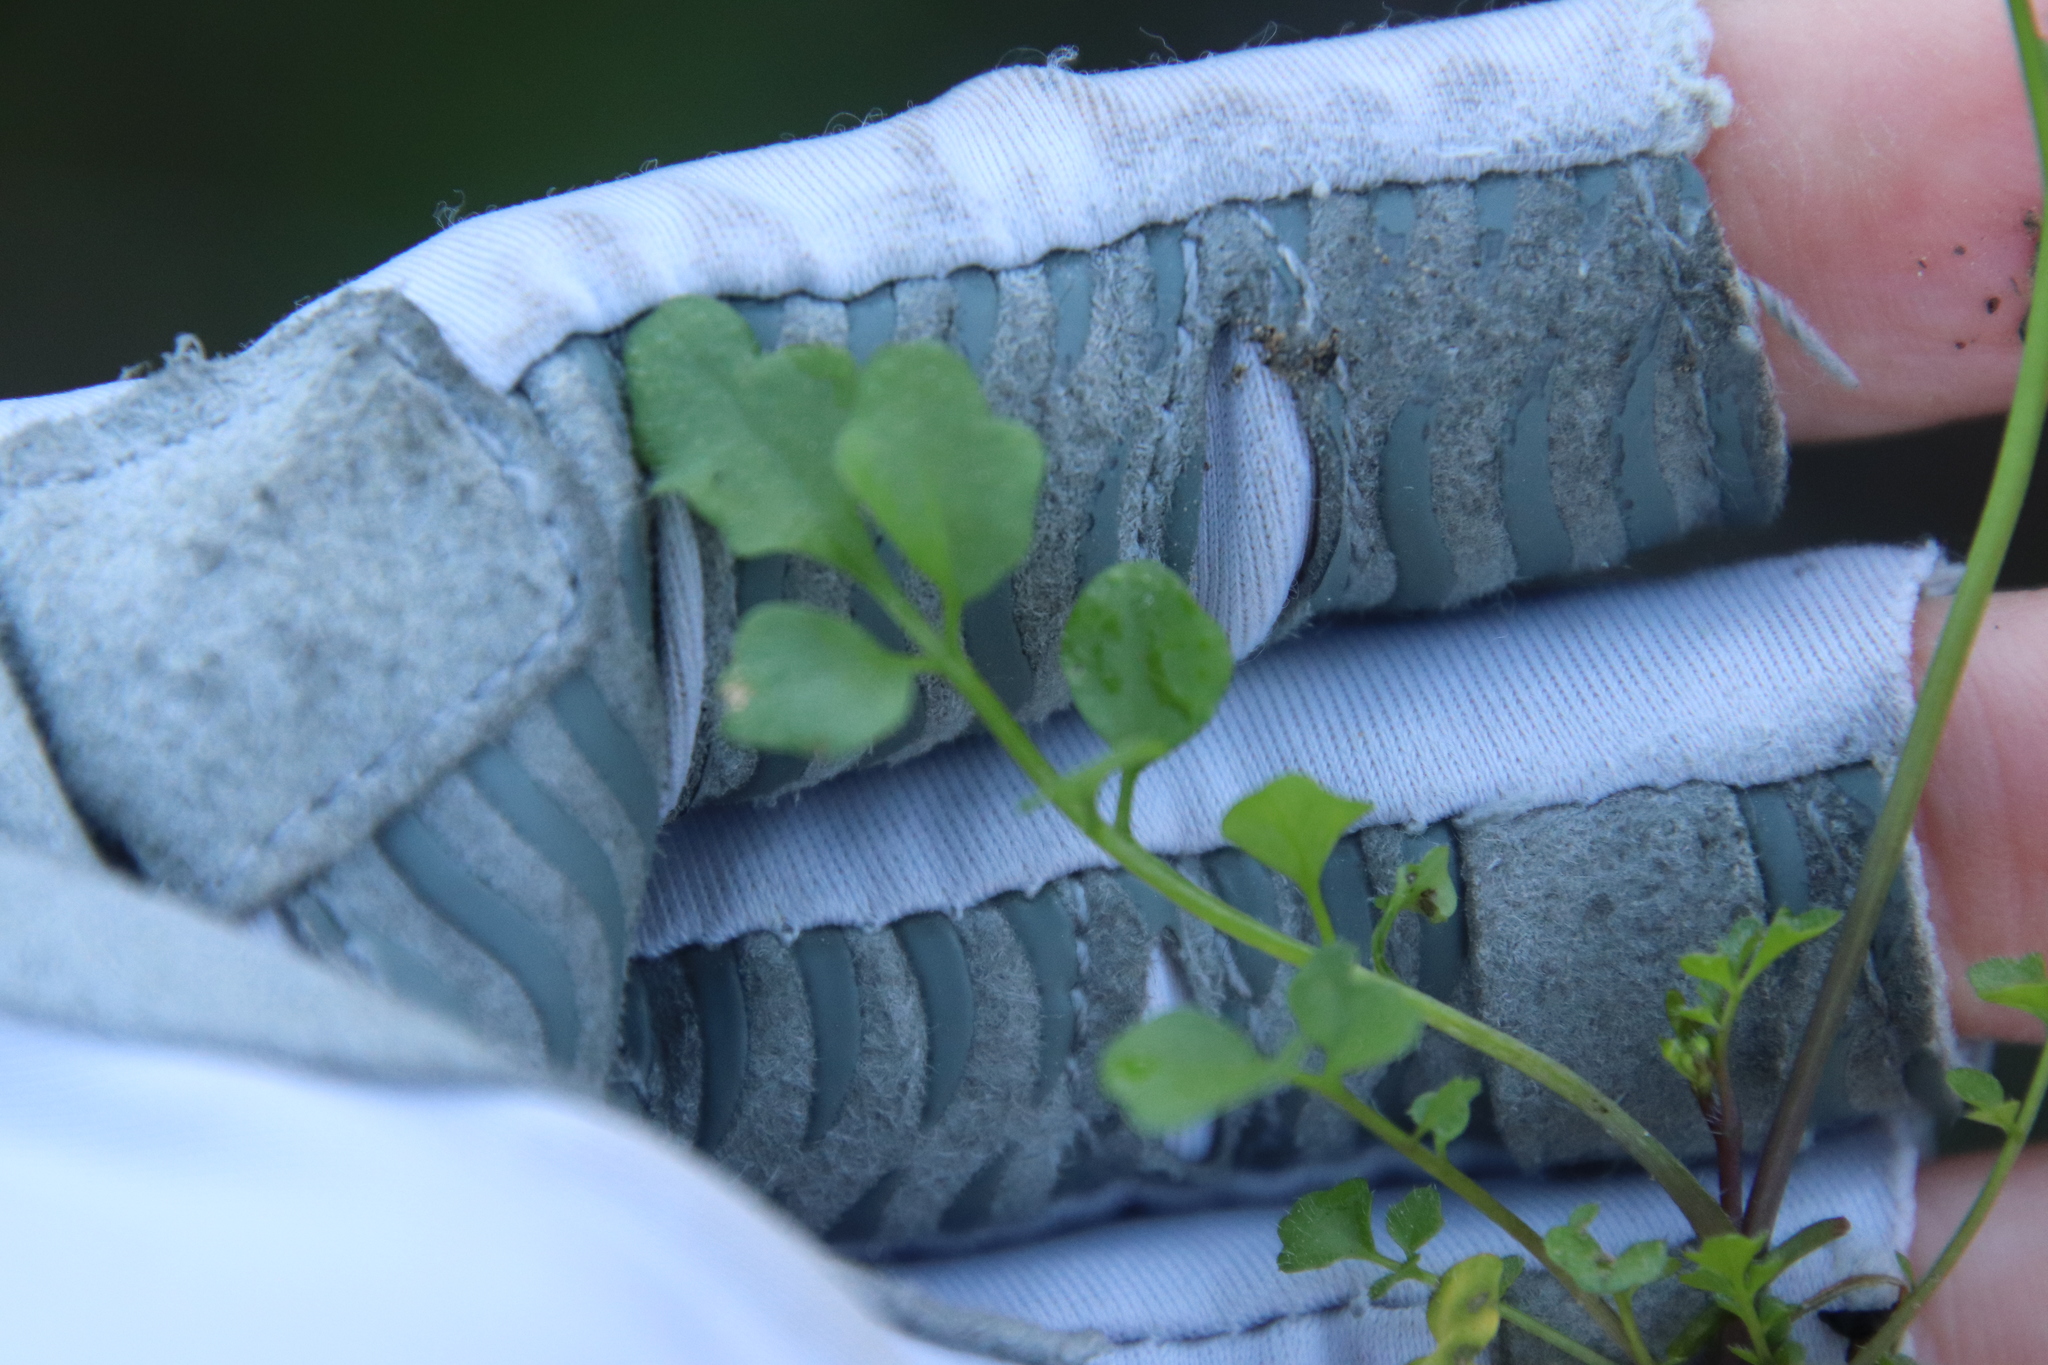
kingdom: Plantae
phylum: Tracheophyta
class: Magnoliopsida
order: Brassicales
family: Brassicaceae
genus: Cardamine
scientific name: Cardamine hirsuta
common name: Hairy bittercress
